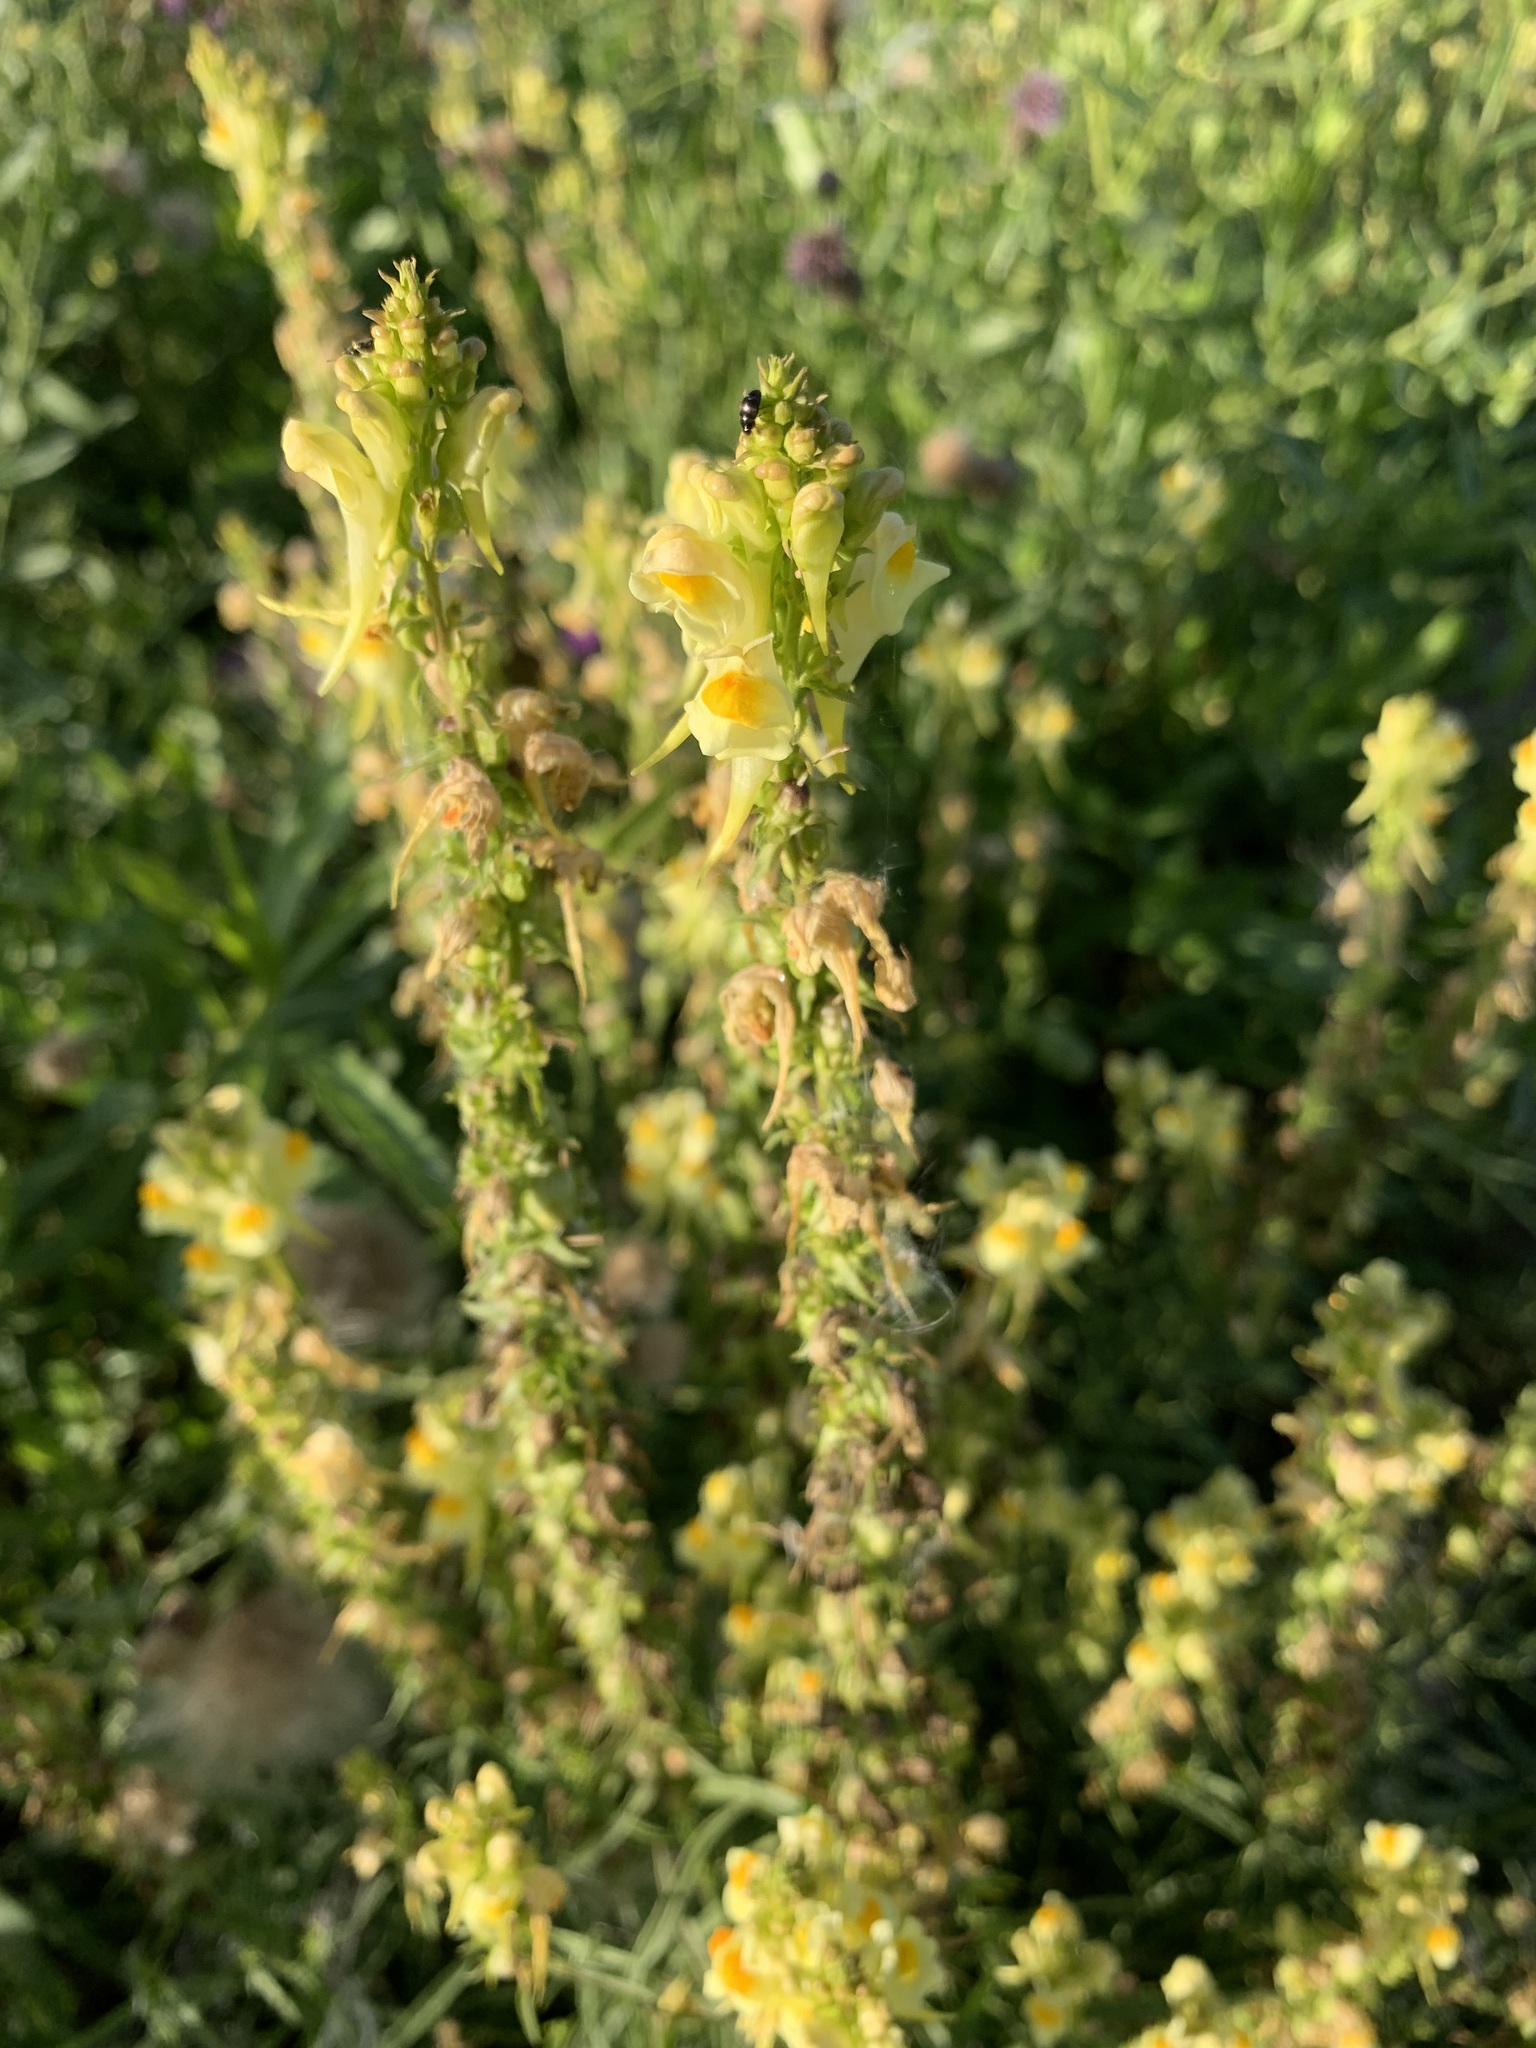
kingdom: Plantae
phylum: Tracheophyta
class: Magnoliopsida
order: Lamiales
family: Plantaginaceae
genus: Linaria
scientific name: Linaria vulgaris
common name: Butter and eggs
